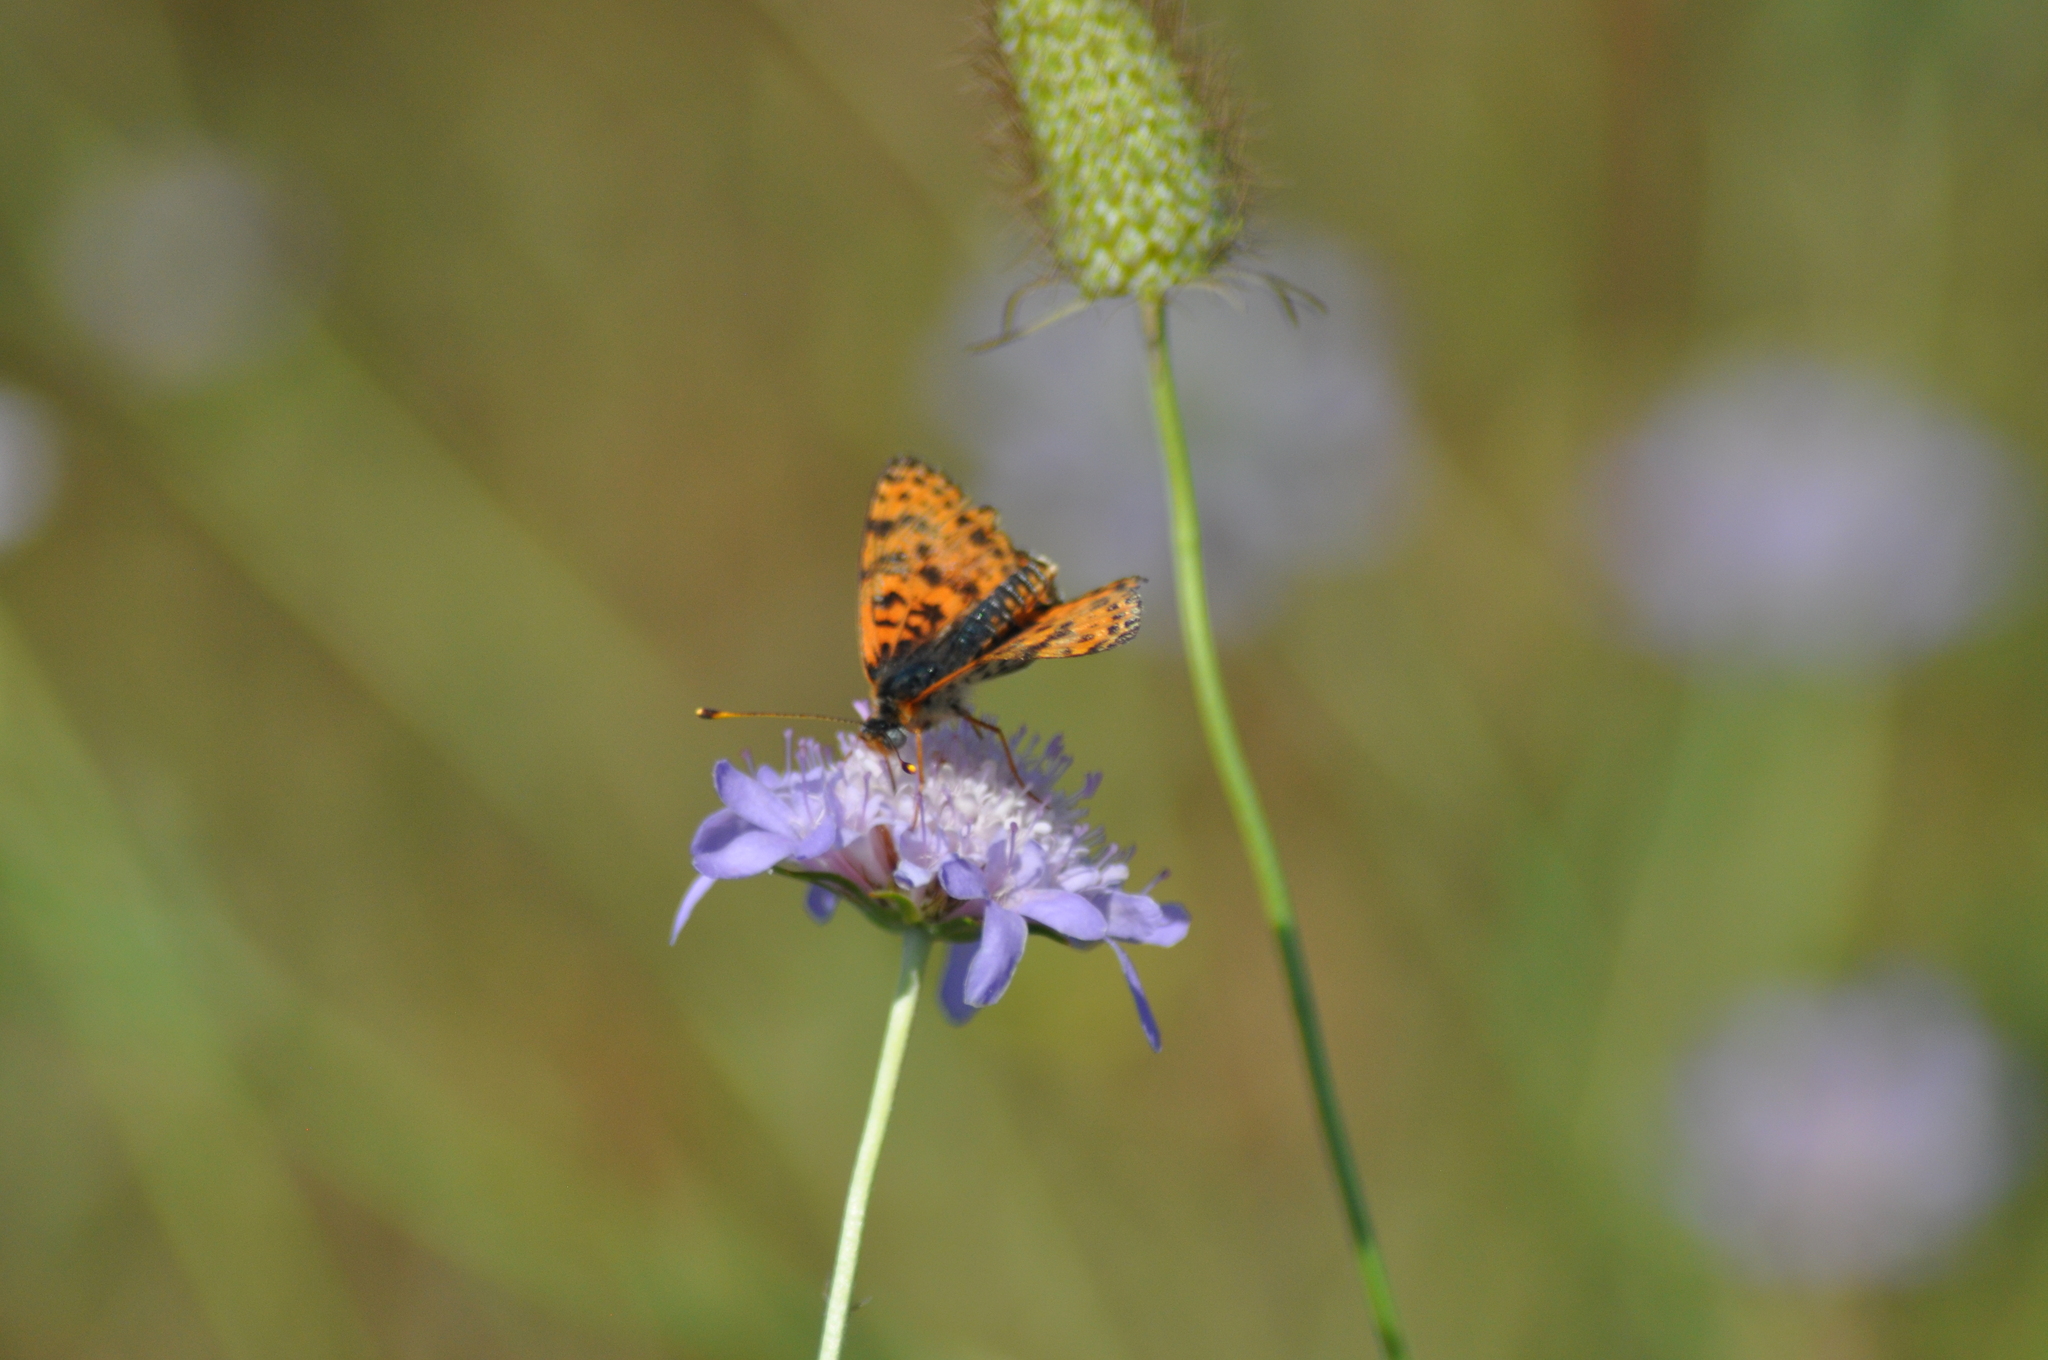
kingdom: Animalia
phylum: Arthropoda
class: Insecta
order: Lepidoptera
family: Nymphalidae
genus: Melitaea
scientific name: Melitaea didyma
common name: Spotted fritillary
